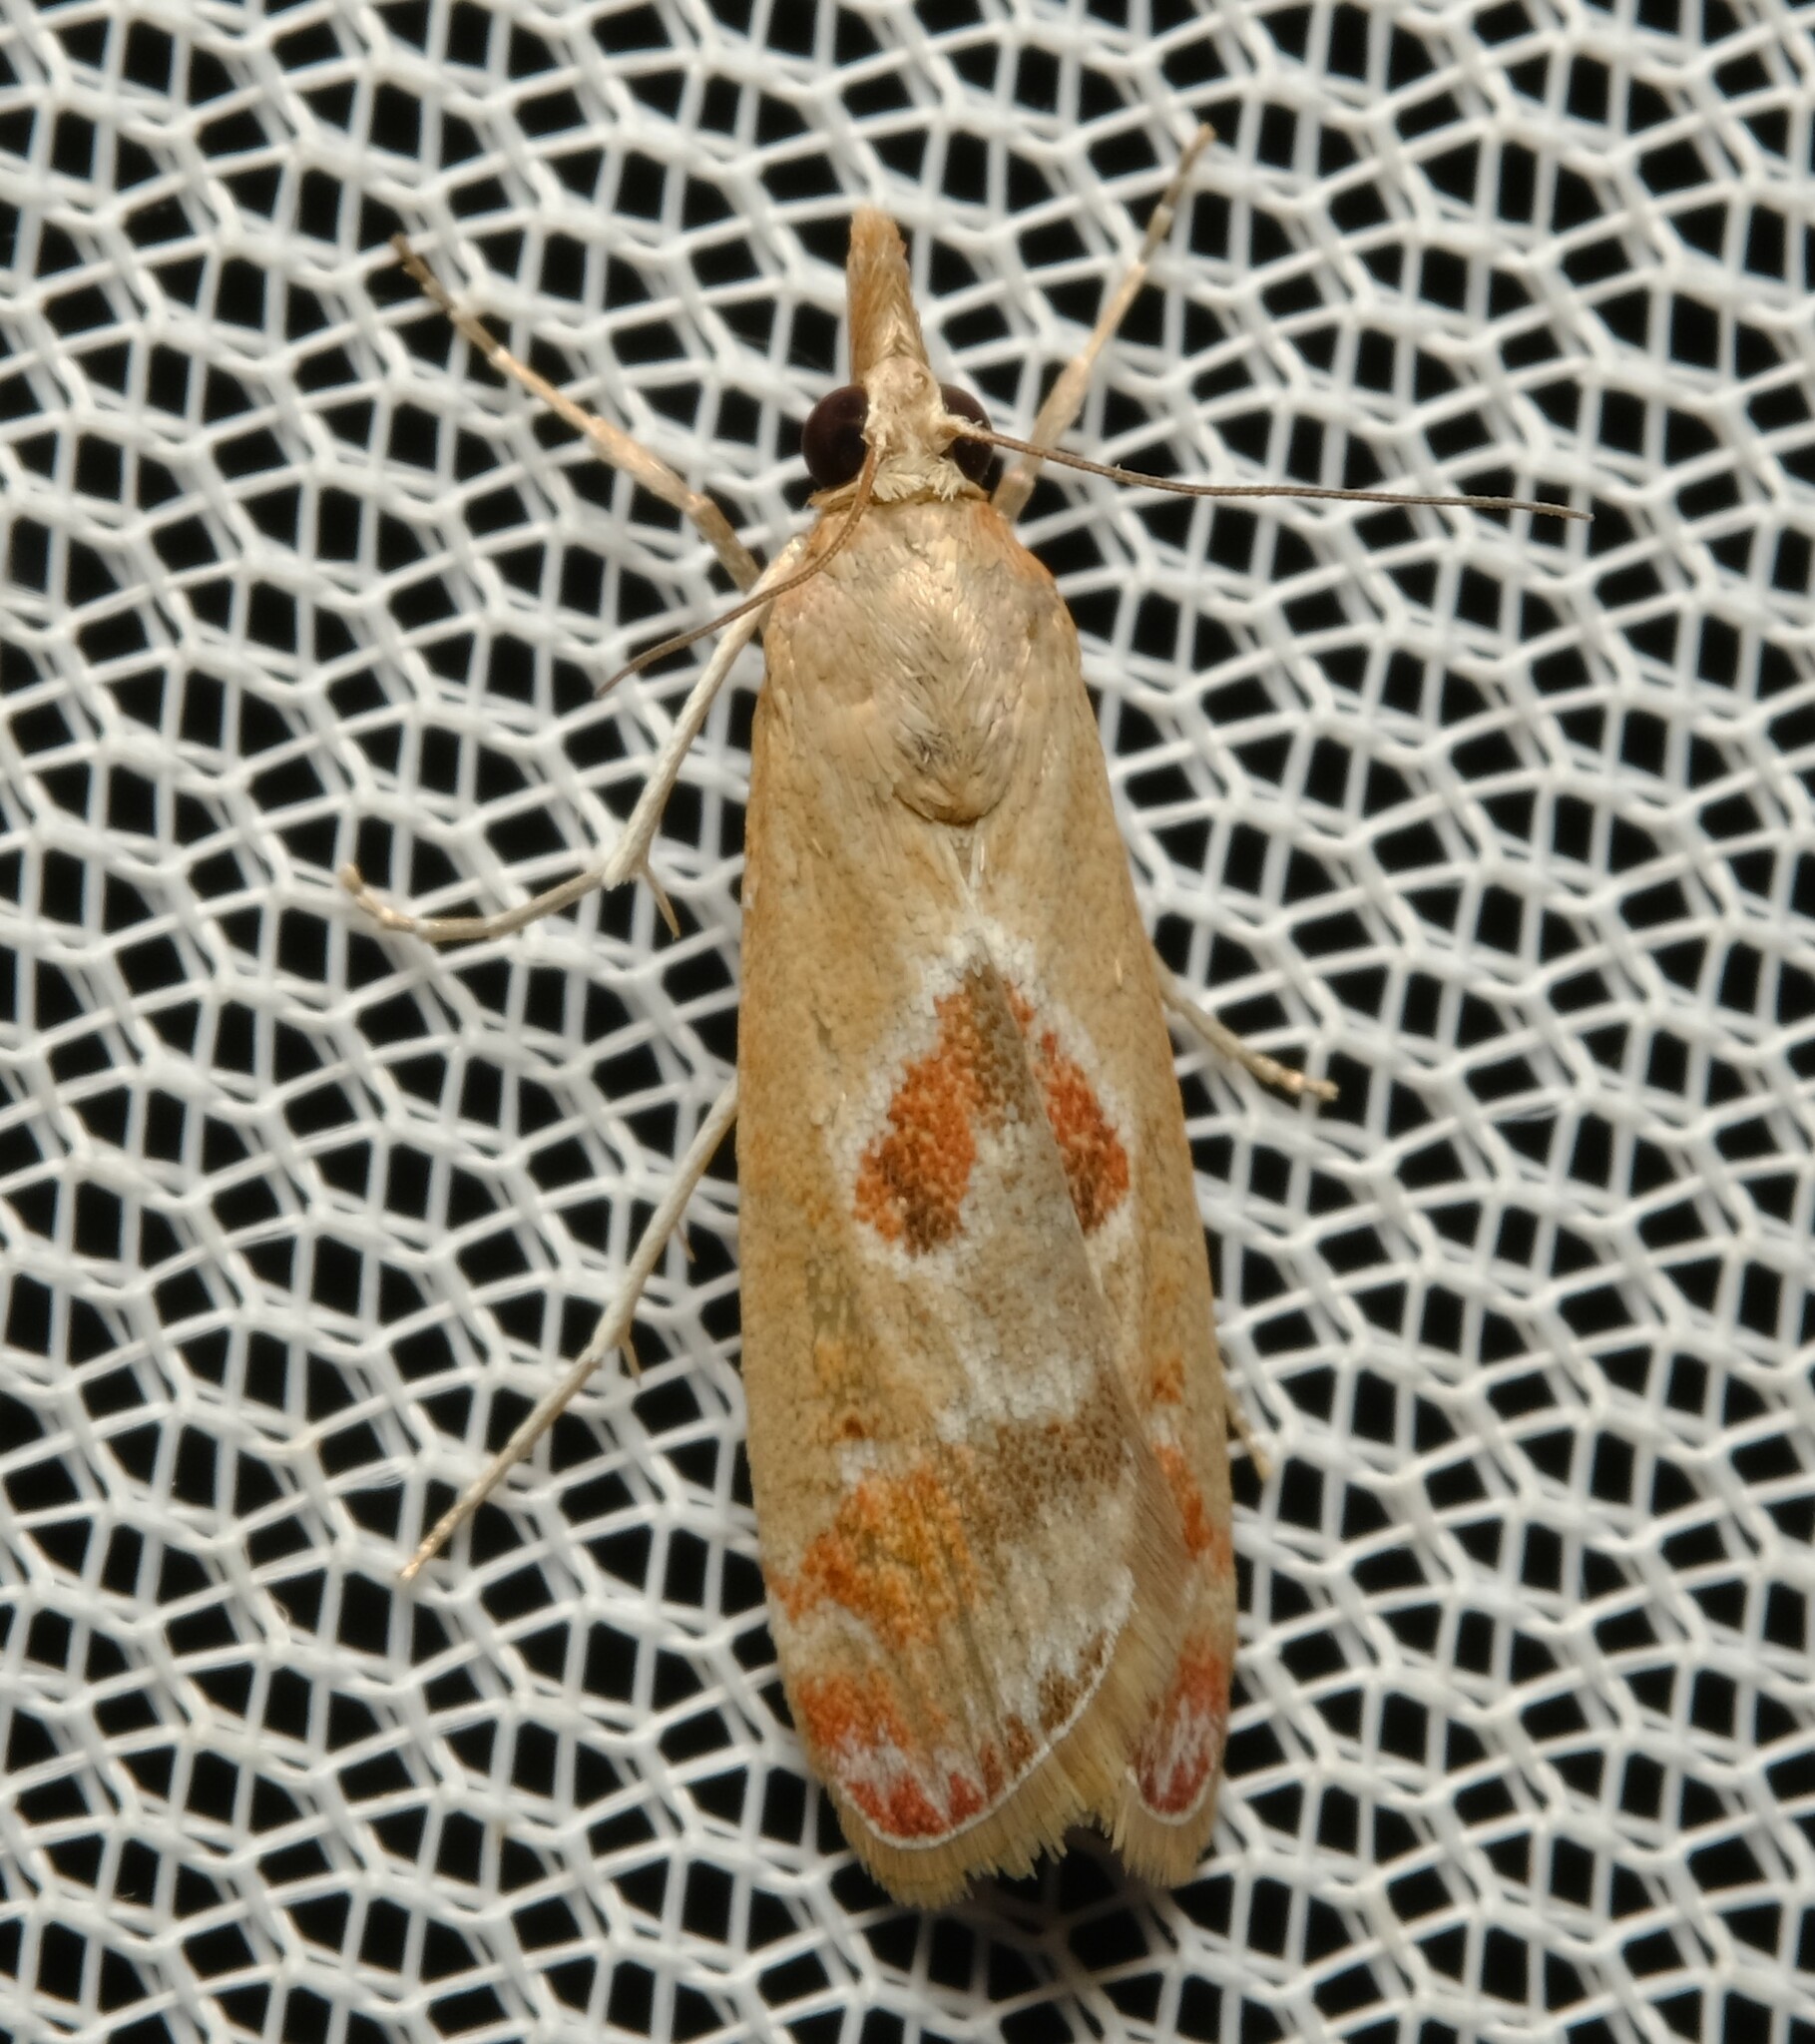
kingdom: Animalia
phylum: Arthropoda
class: Insecta
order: Lepidoptera
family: Crambidae
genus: Syntonarcha
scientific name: Syntonarcha iriastis
